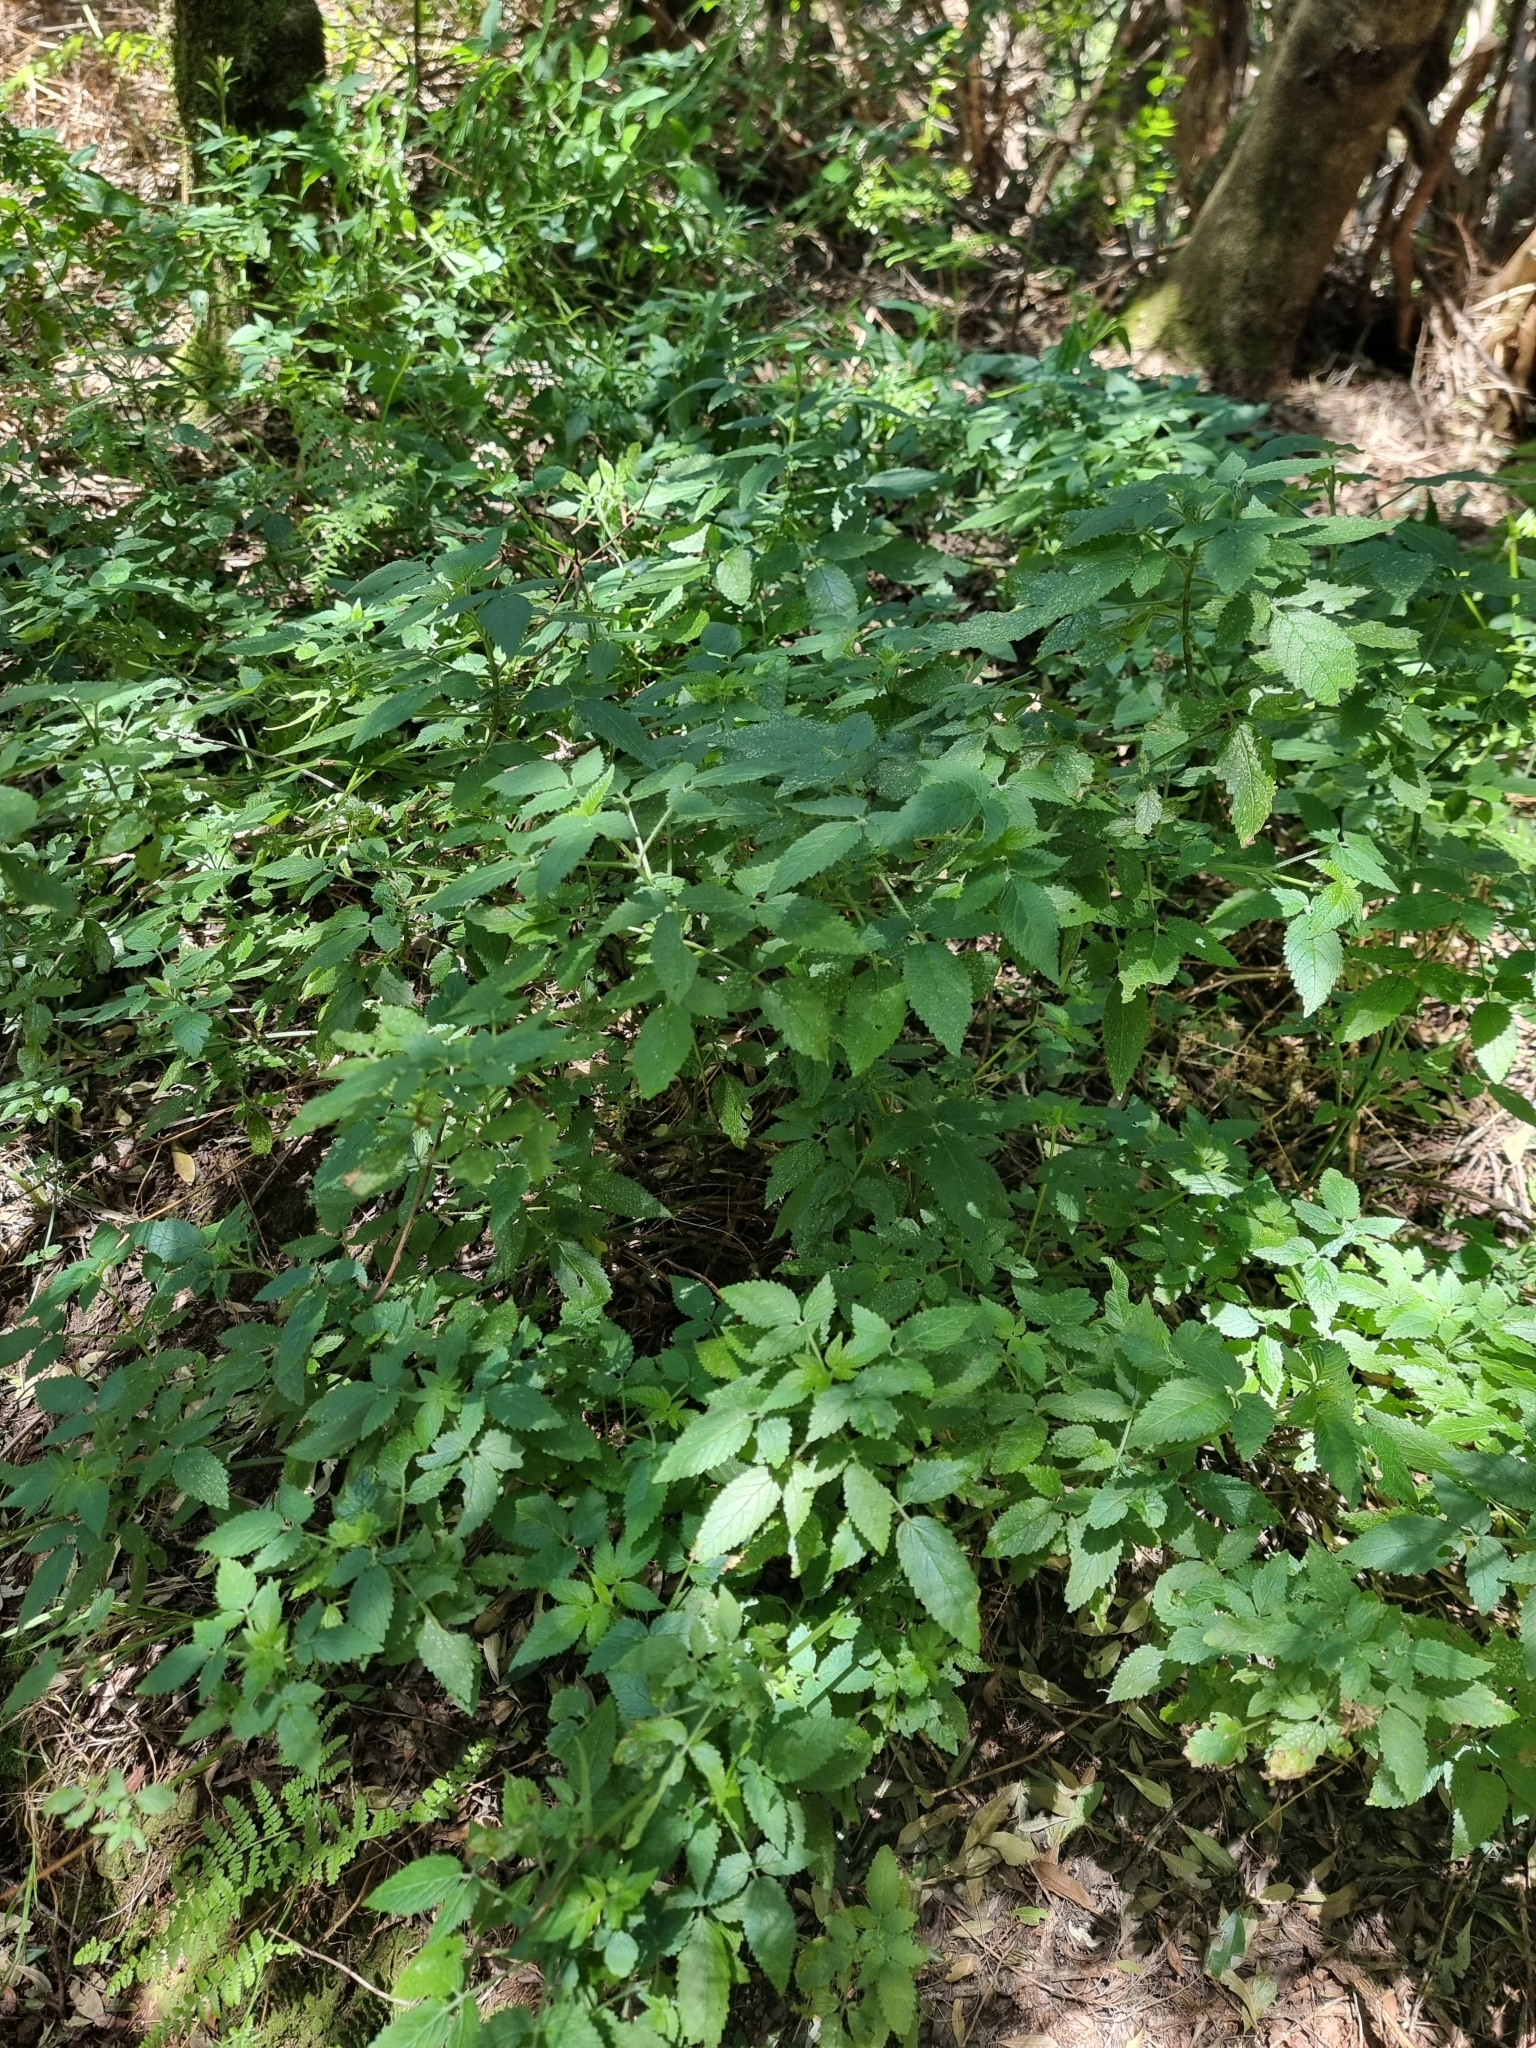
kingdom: Plantae
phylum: Tracheophyta
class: Magnoliopsida
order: Lamiales
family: Lamiaceae
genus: Cedronella
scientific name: Cedronella canariensis
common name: Canary islands balm
